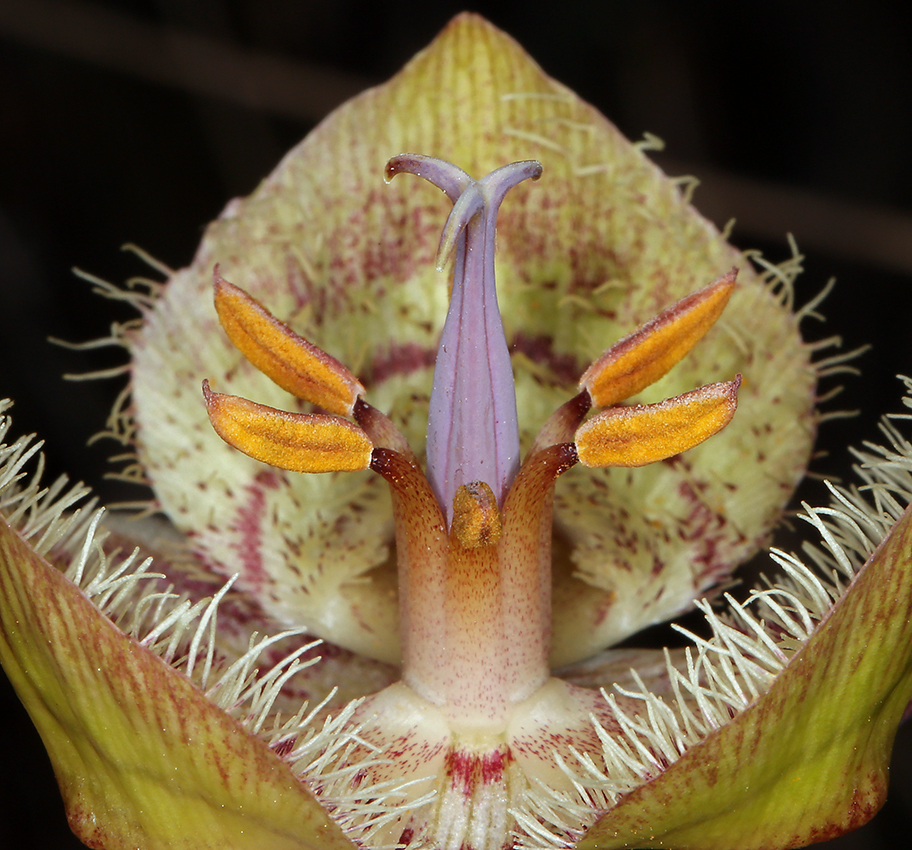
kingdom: Plantae
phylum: Tracheophyta
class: Liliopsida
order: Liliales
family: Liliaceae
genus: Calochortus
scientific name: Calochortus tiburonensis
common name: Tiburon mariposa-lily
